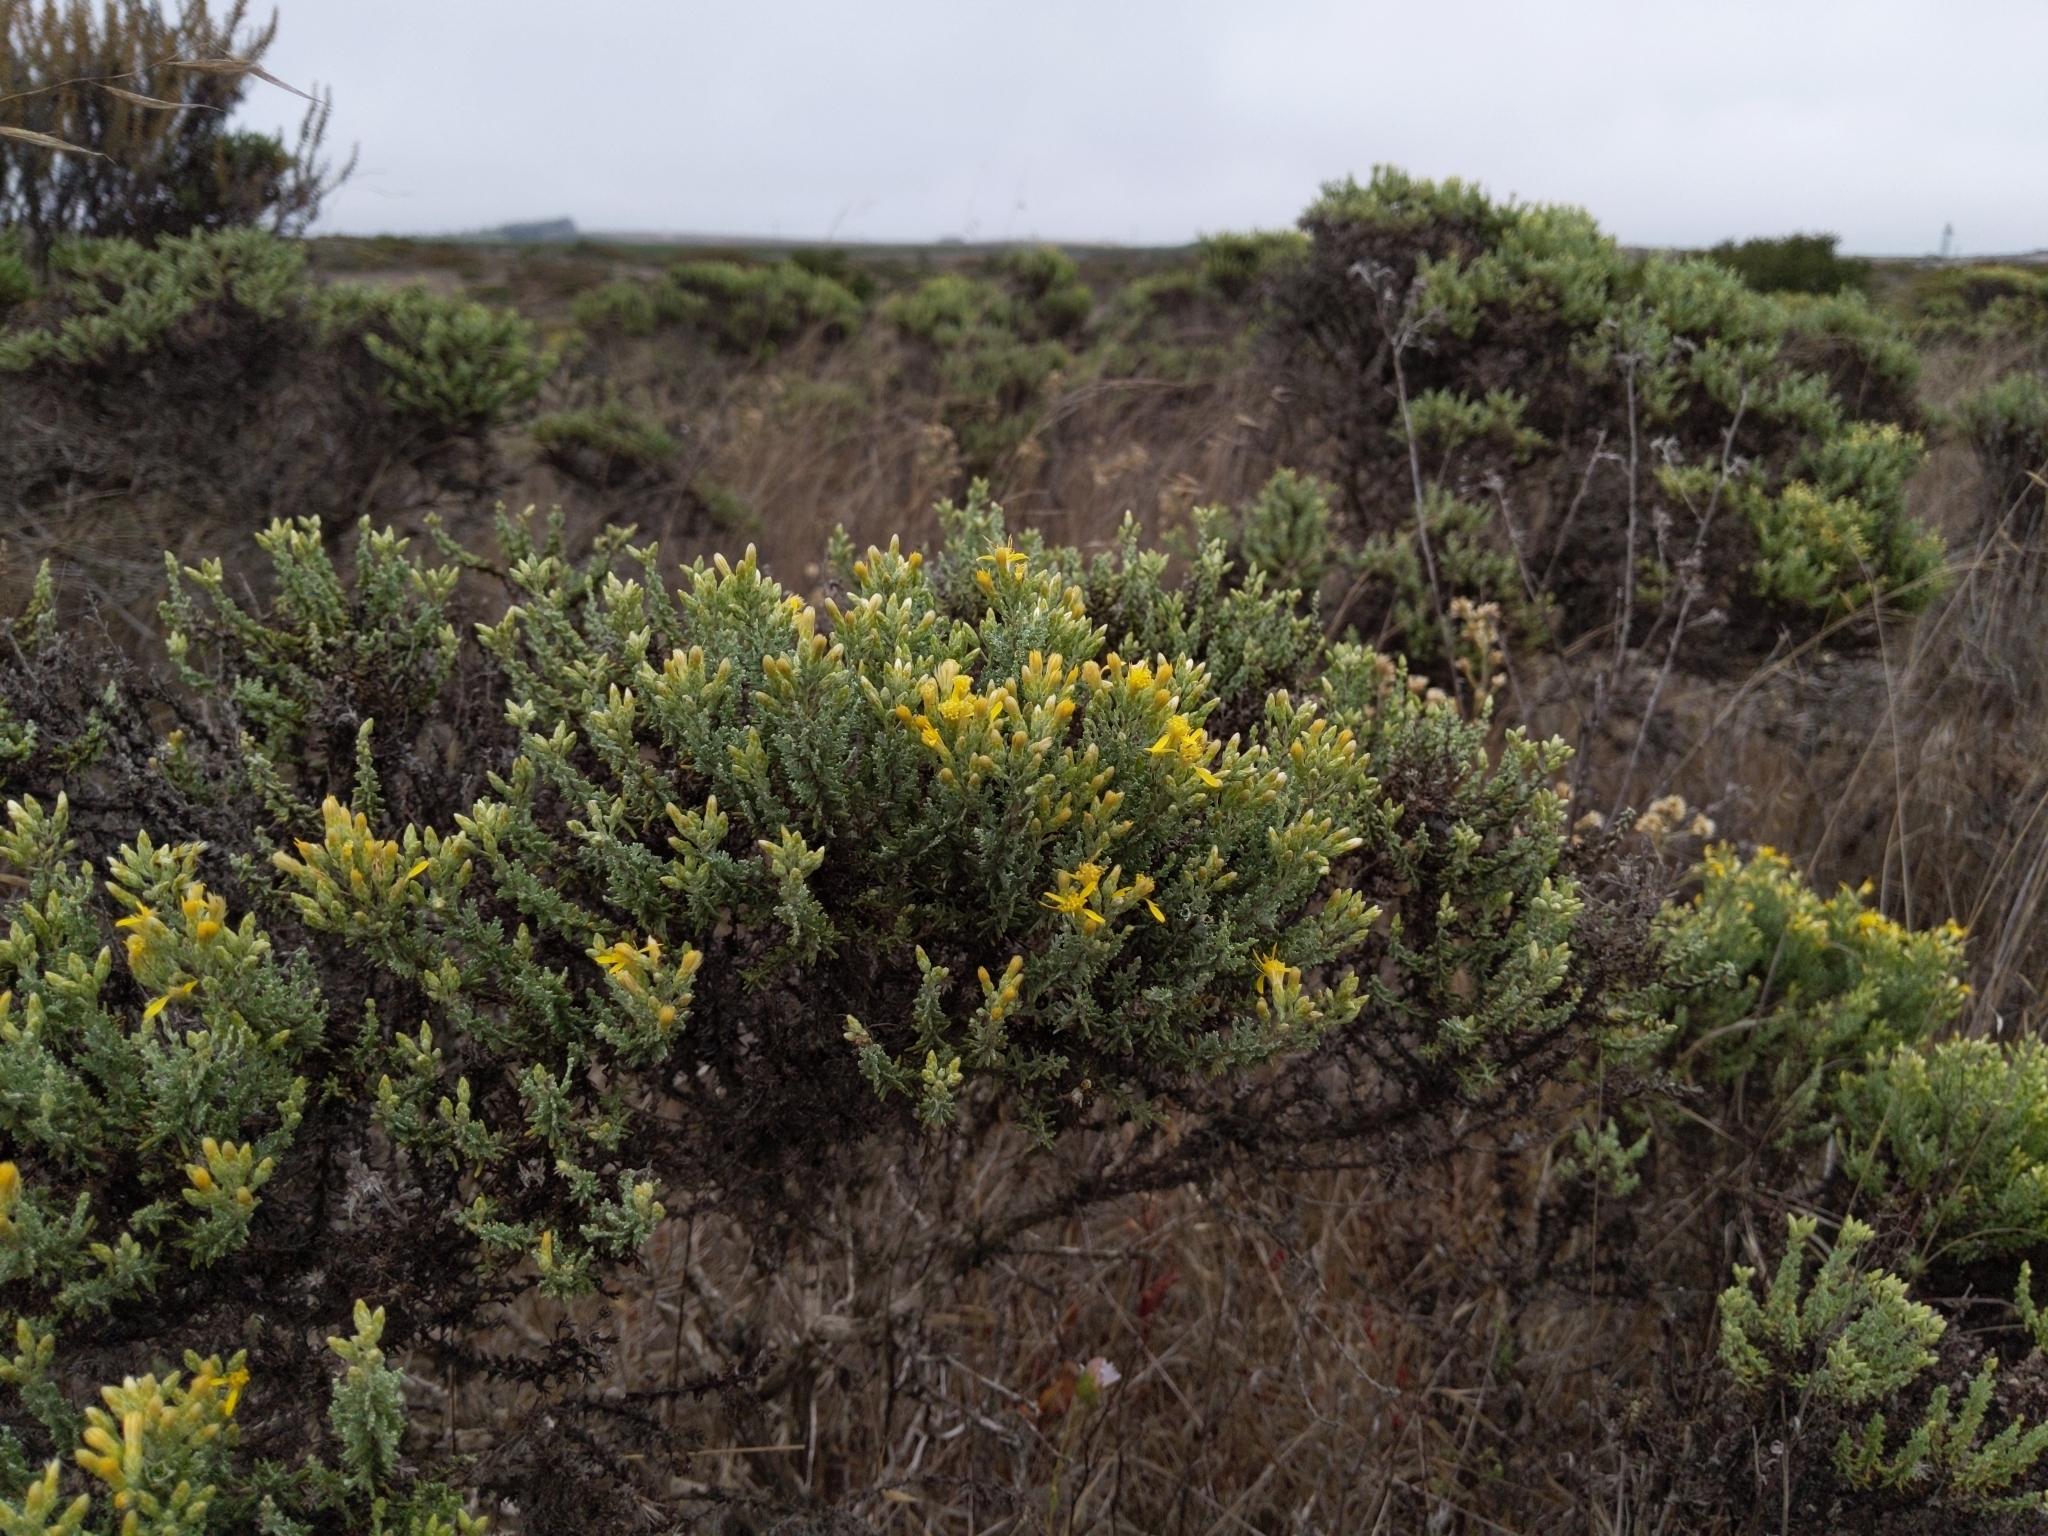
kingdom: Plantae
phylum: Tracheophyta
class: Magnoliopsida
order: Asterales
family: Asteraceae
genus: Ericameria
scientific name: Ericameria ericoides
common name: California goldenbush
